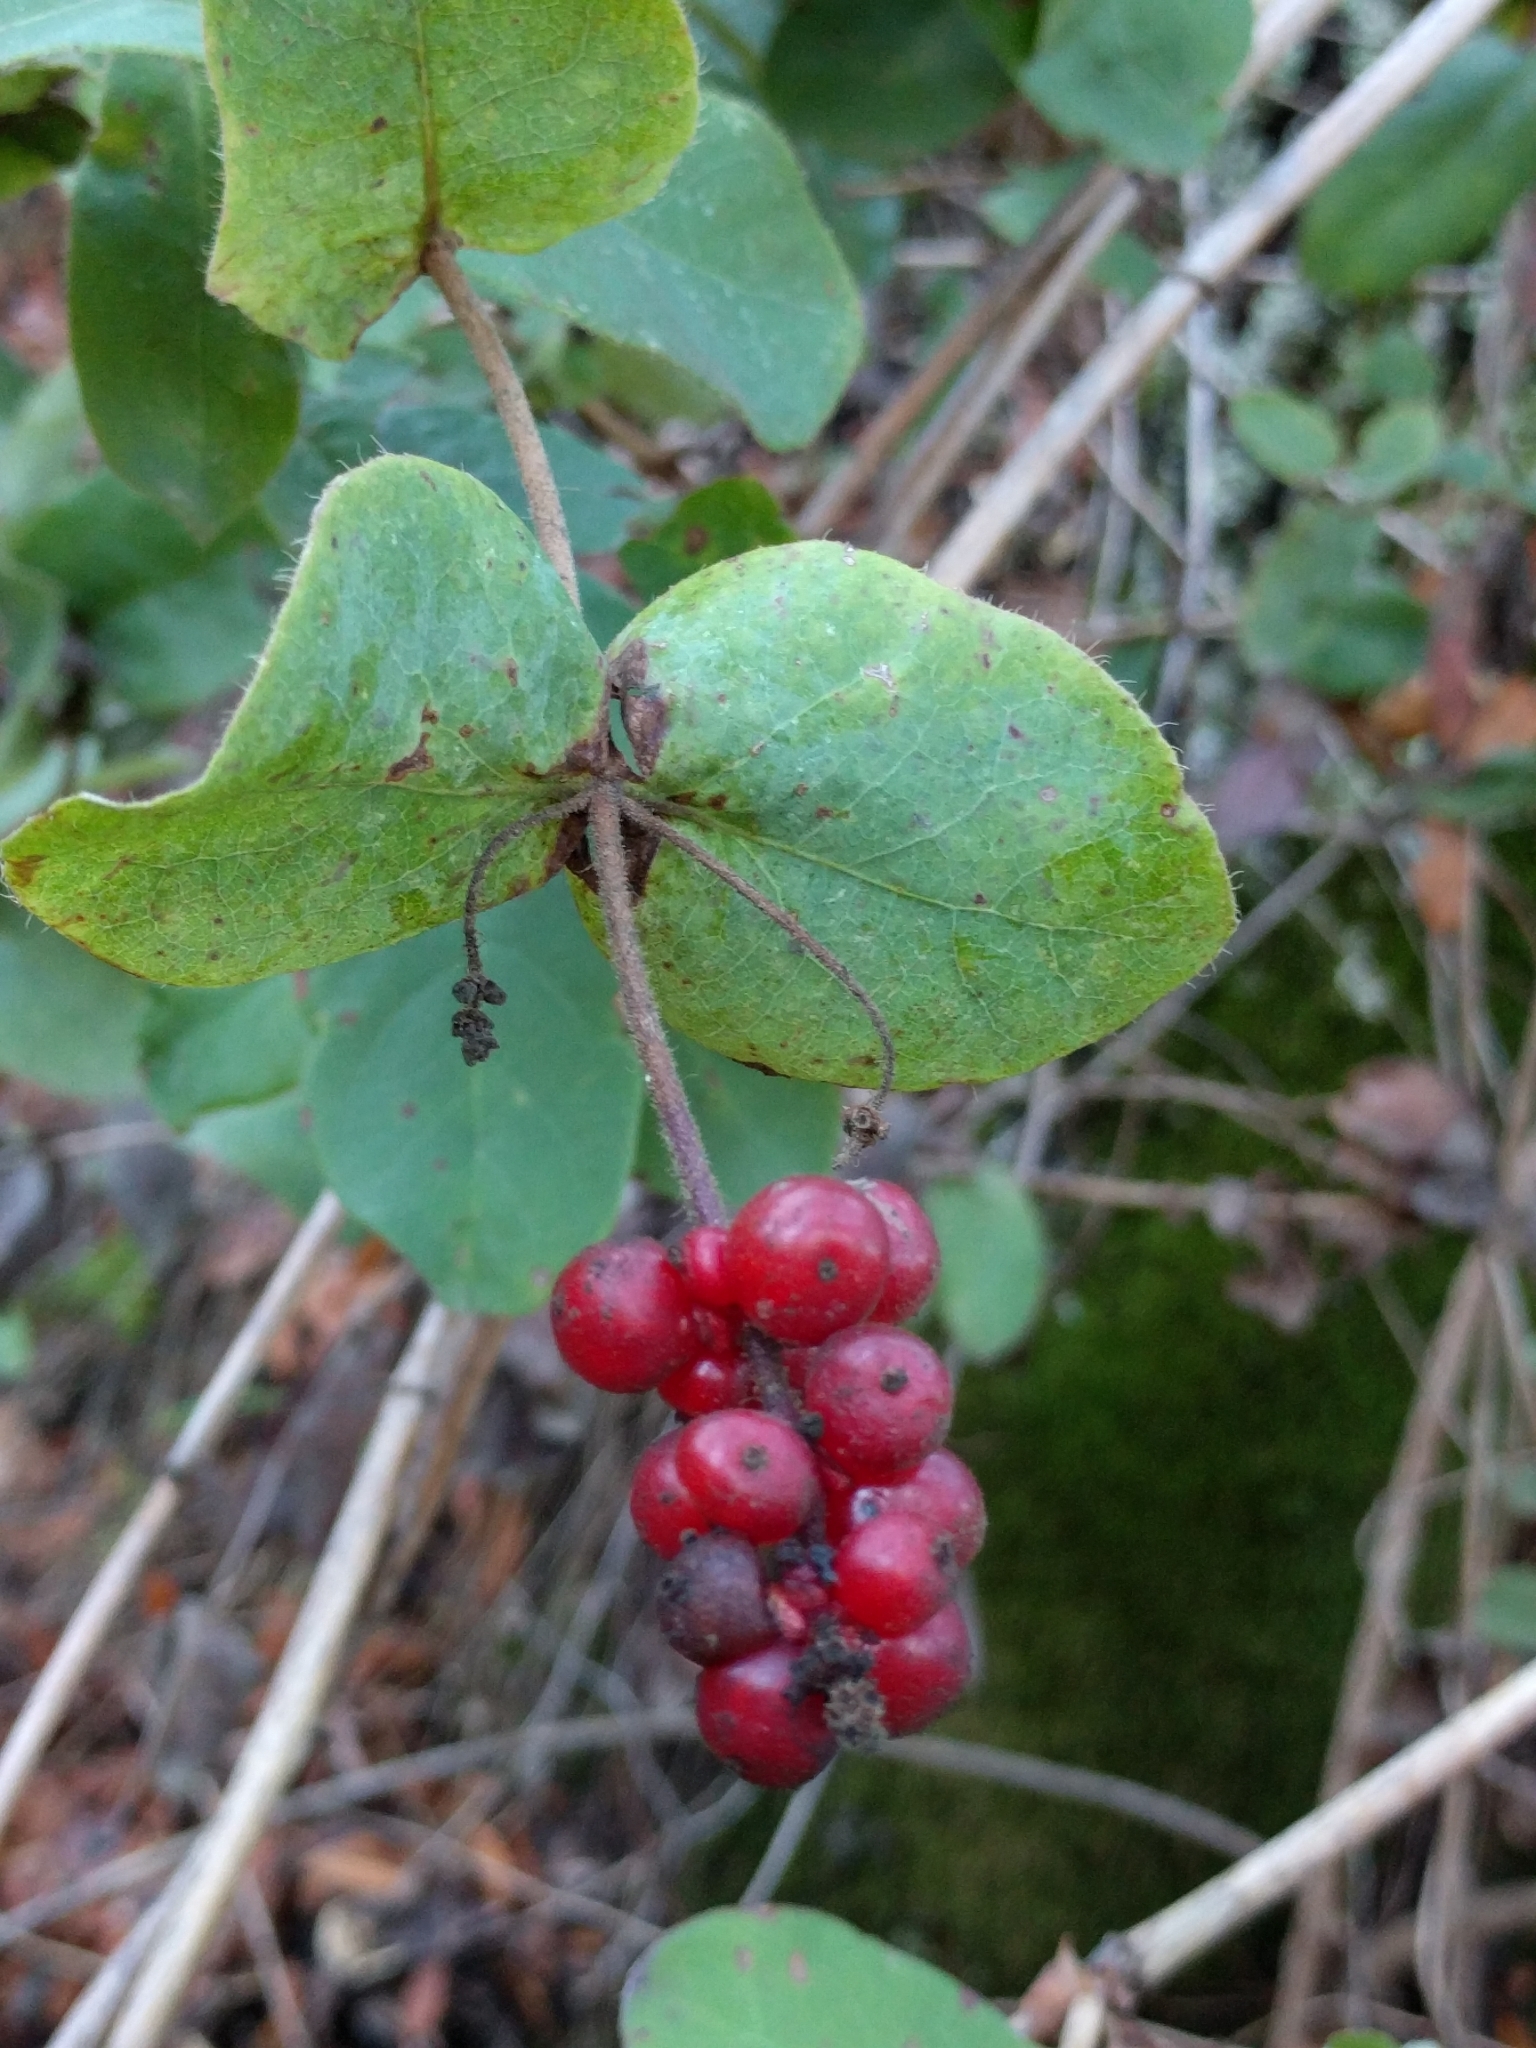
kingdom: Plantae
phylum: Tracheophyta
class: Magnoliopsida
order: Dipsacales
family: Caprifoliaceae
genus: Lonicera
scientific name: Lonicera hispidula
